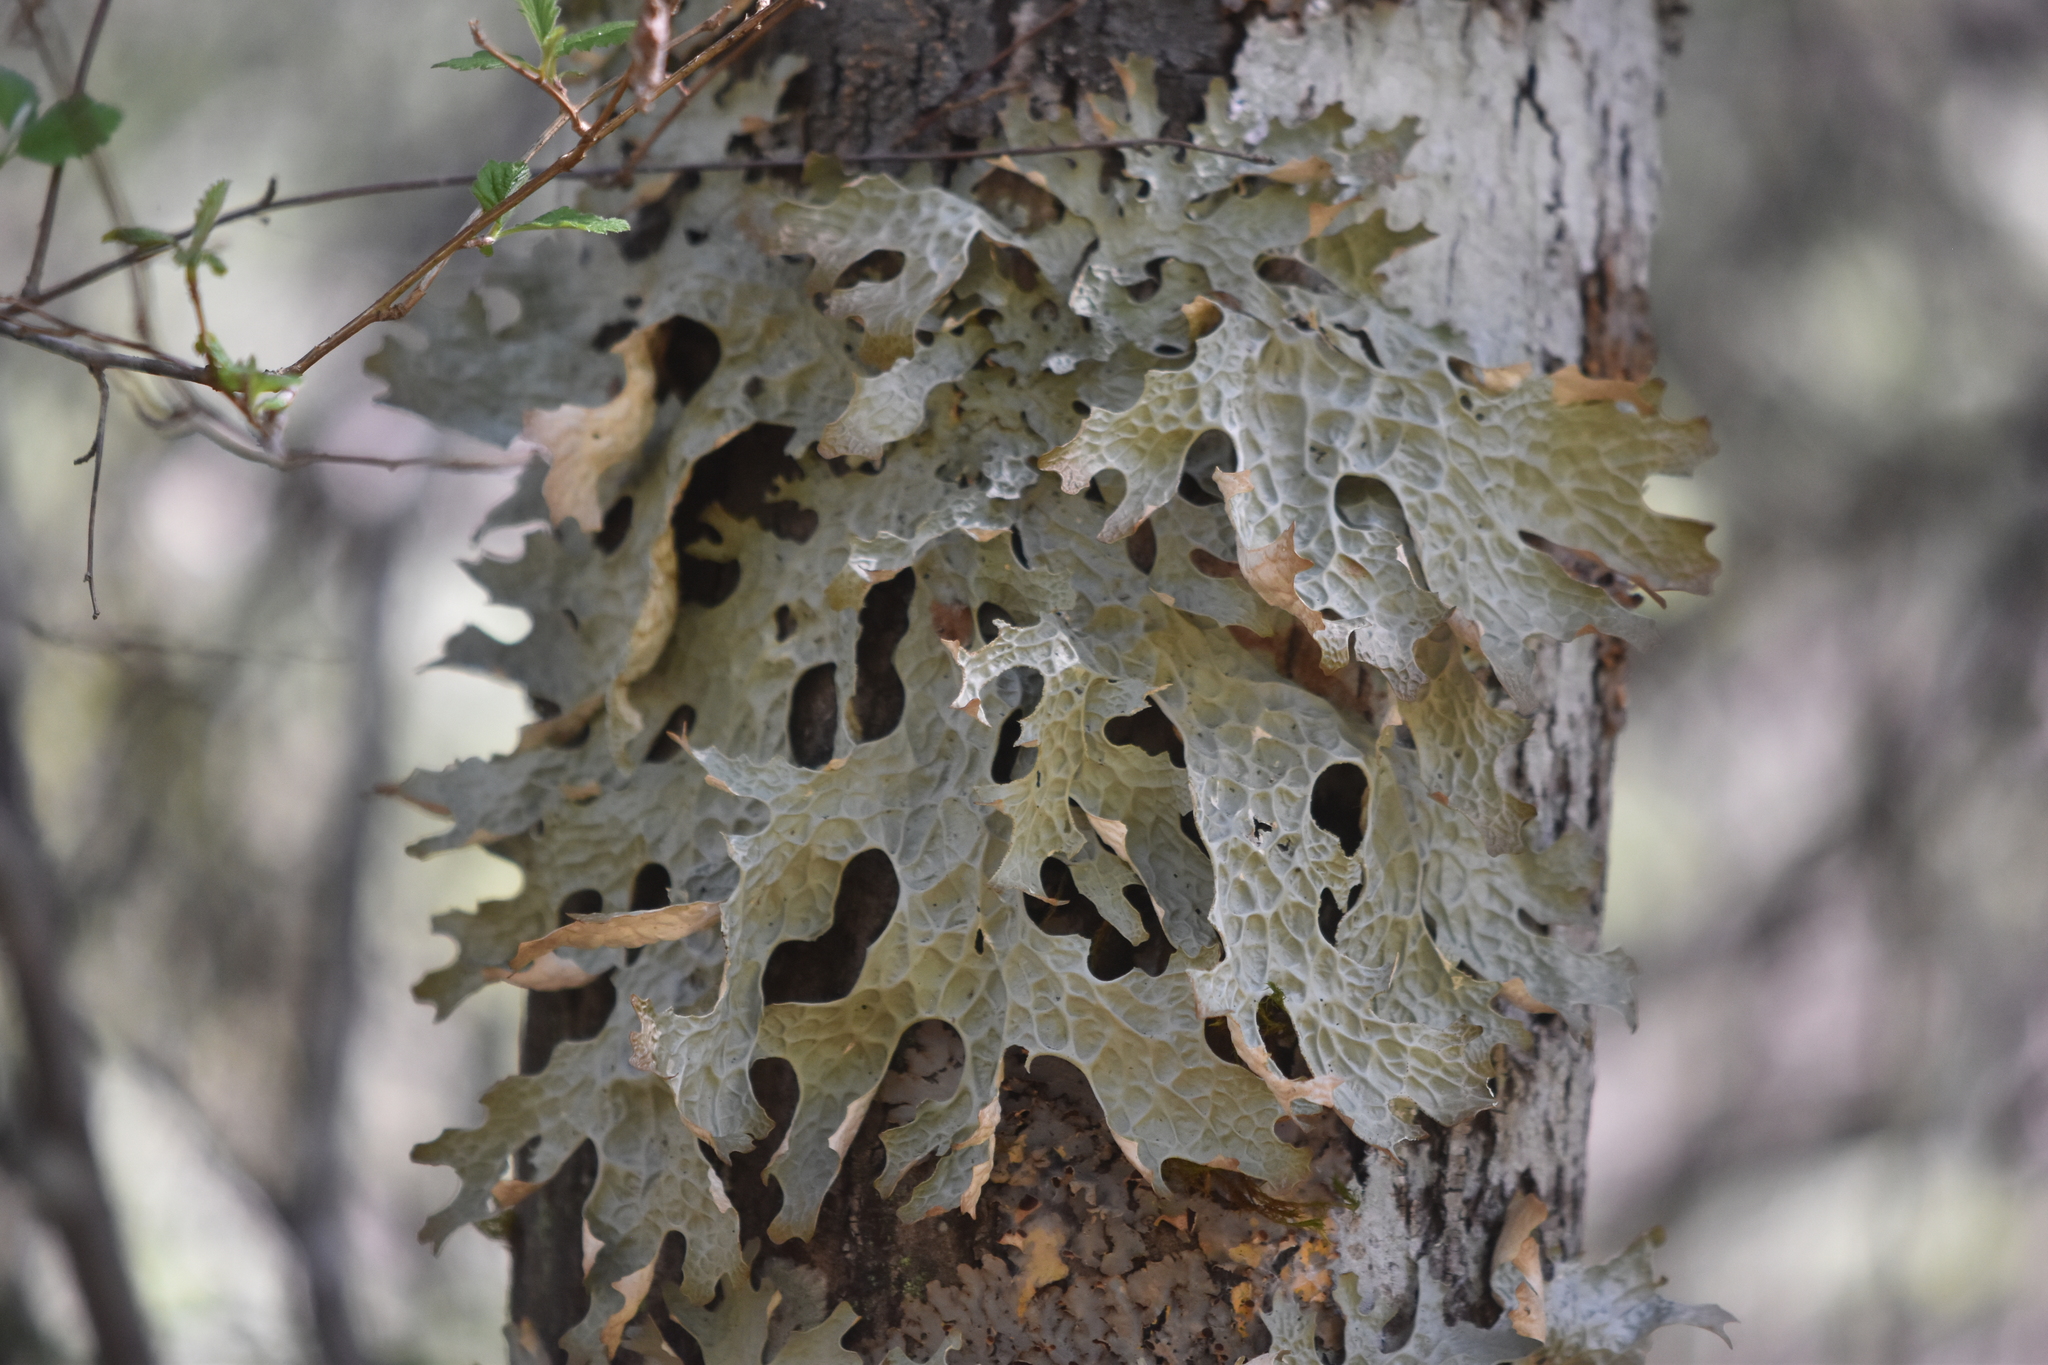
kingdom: Fungi
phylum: Ascomycota
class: Lecanoromycetes
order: Peltigerales
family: Lobariaceae
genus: Lobaria
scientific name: Lobaria pulmonaria
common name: Lungwort
